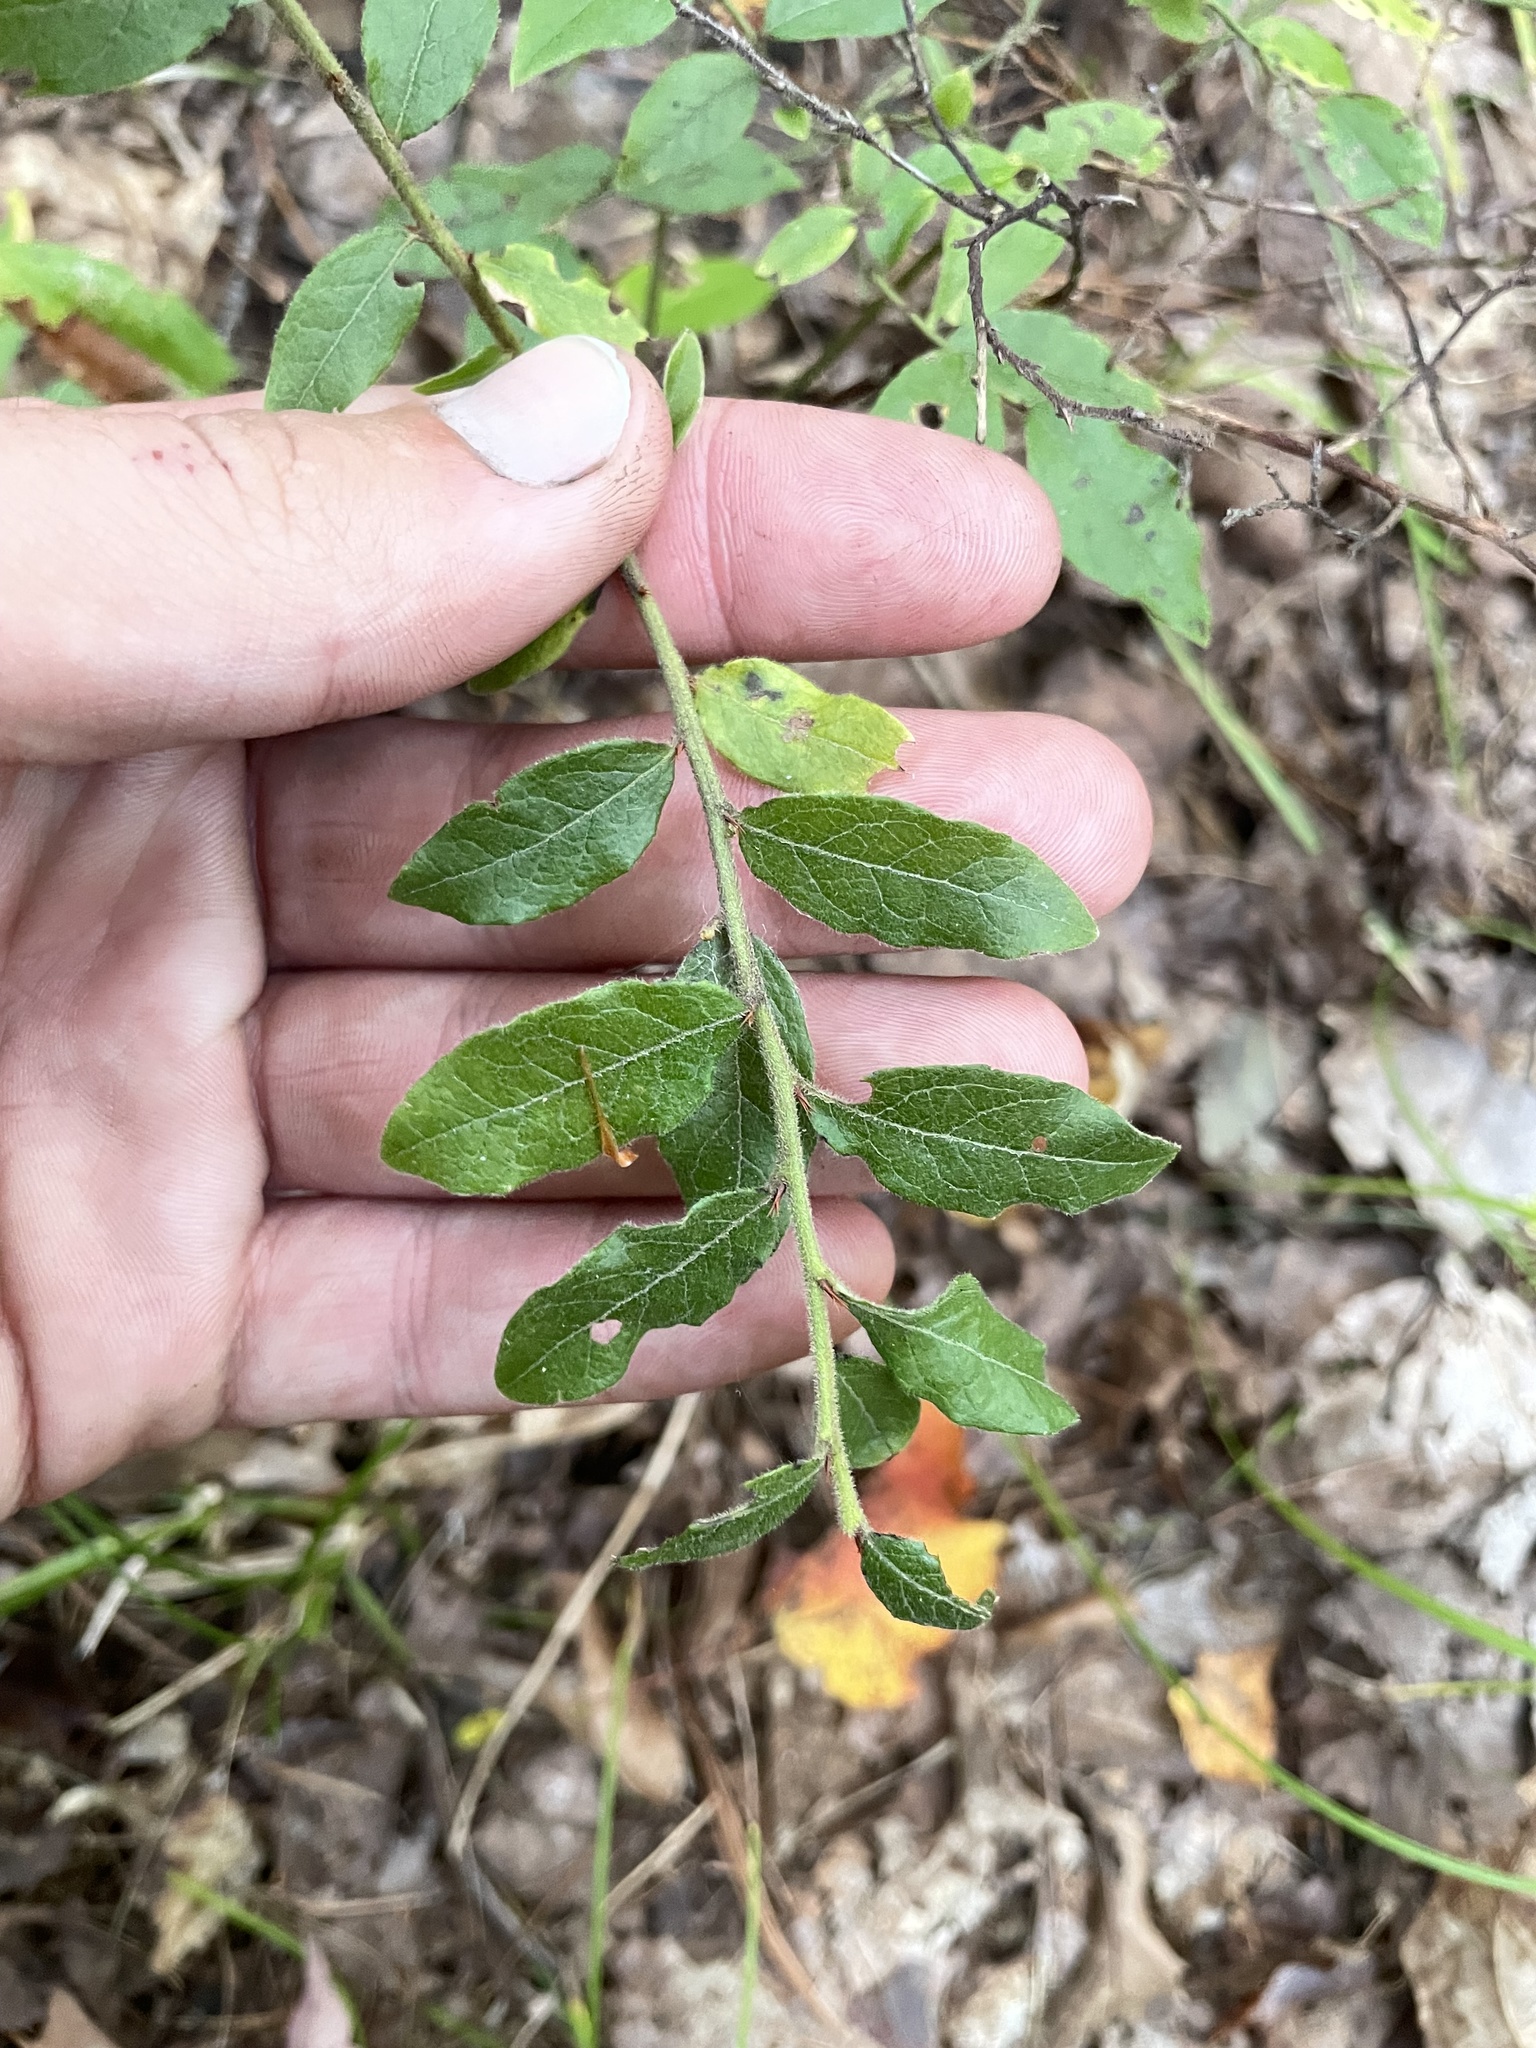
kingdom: Plantae
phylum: Tracheophyta
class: Magnoliopsida
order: Ericales
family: Ericaceae
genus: Vaccinium
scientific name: Vaccinium myrtilloides
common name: Canada blueberry
